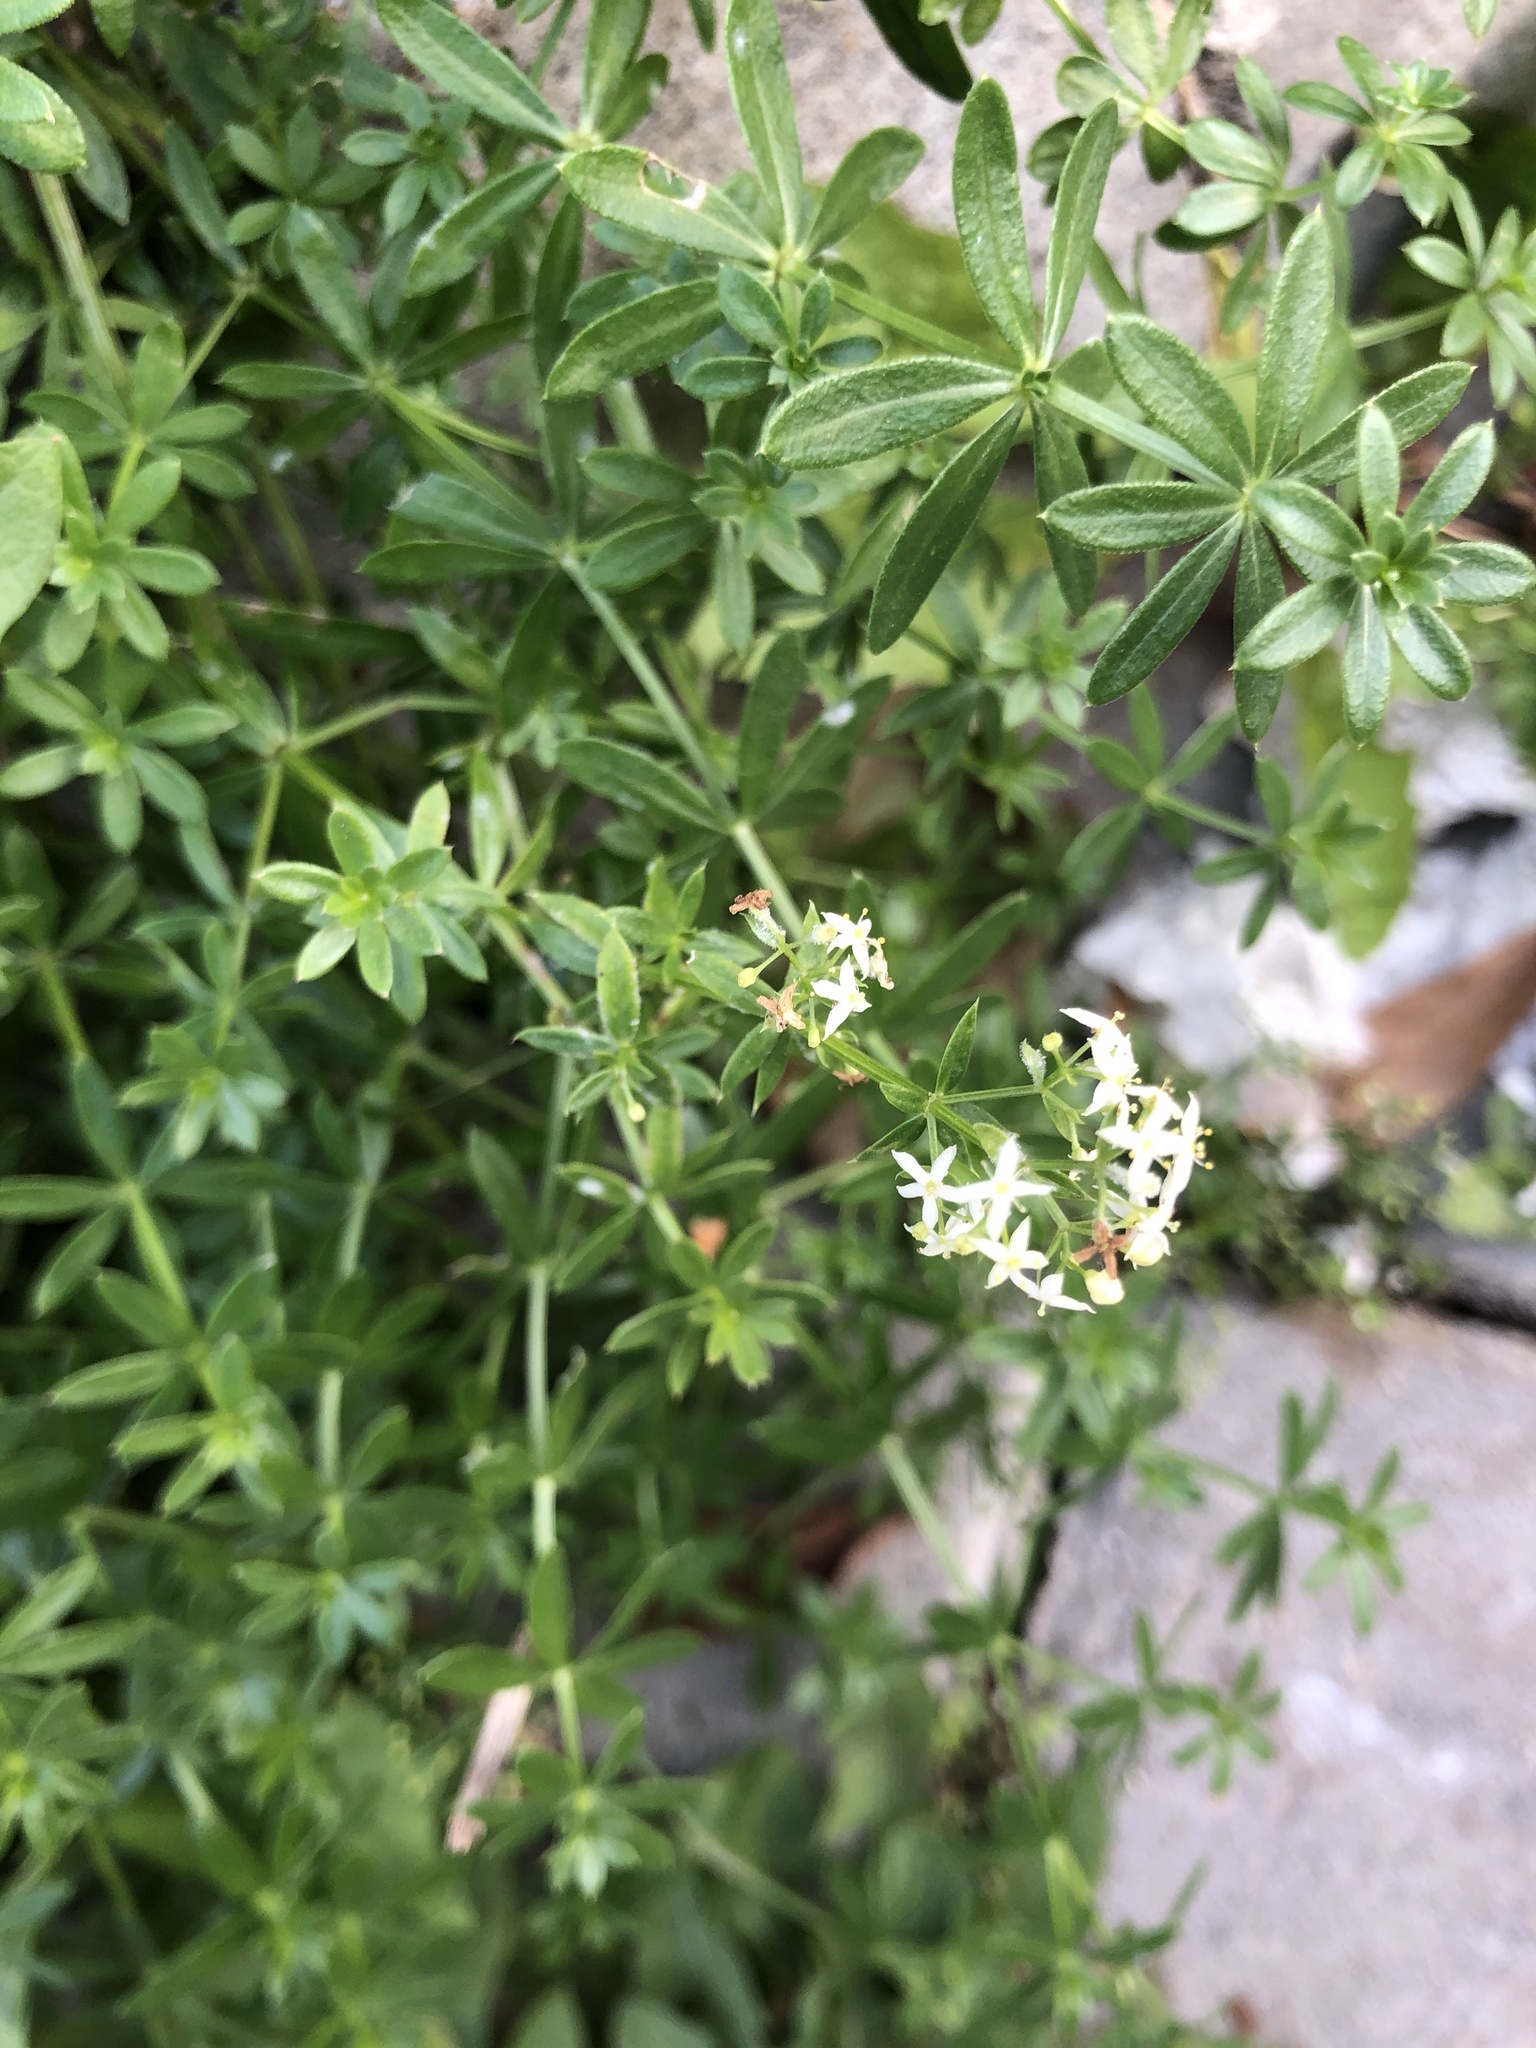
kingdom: Plantae
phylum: Tracheophyta
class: Magnoliopsida
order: Gentianales
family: Rubiaceae
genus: Galium
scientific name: Galium mollugo
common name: Hedge bedstraw
